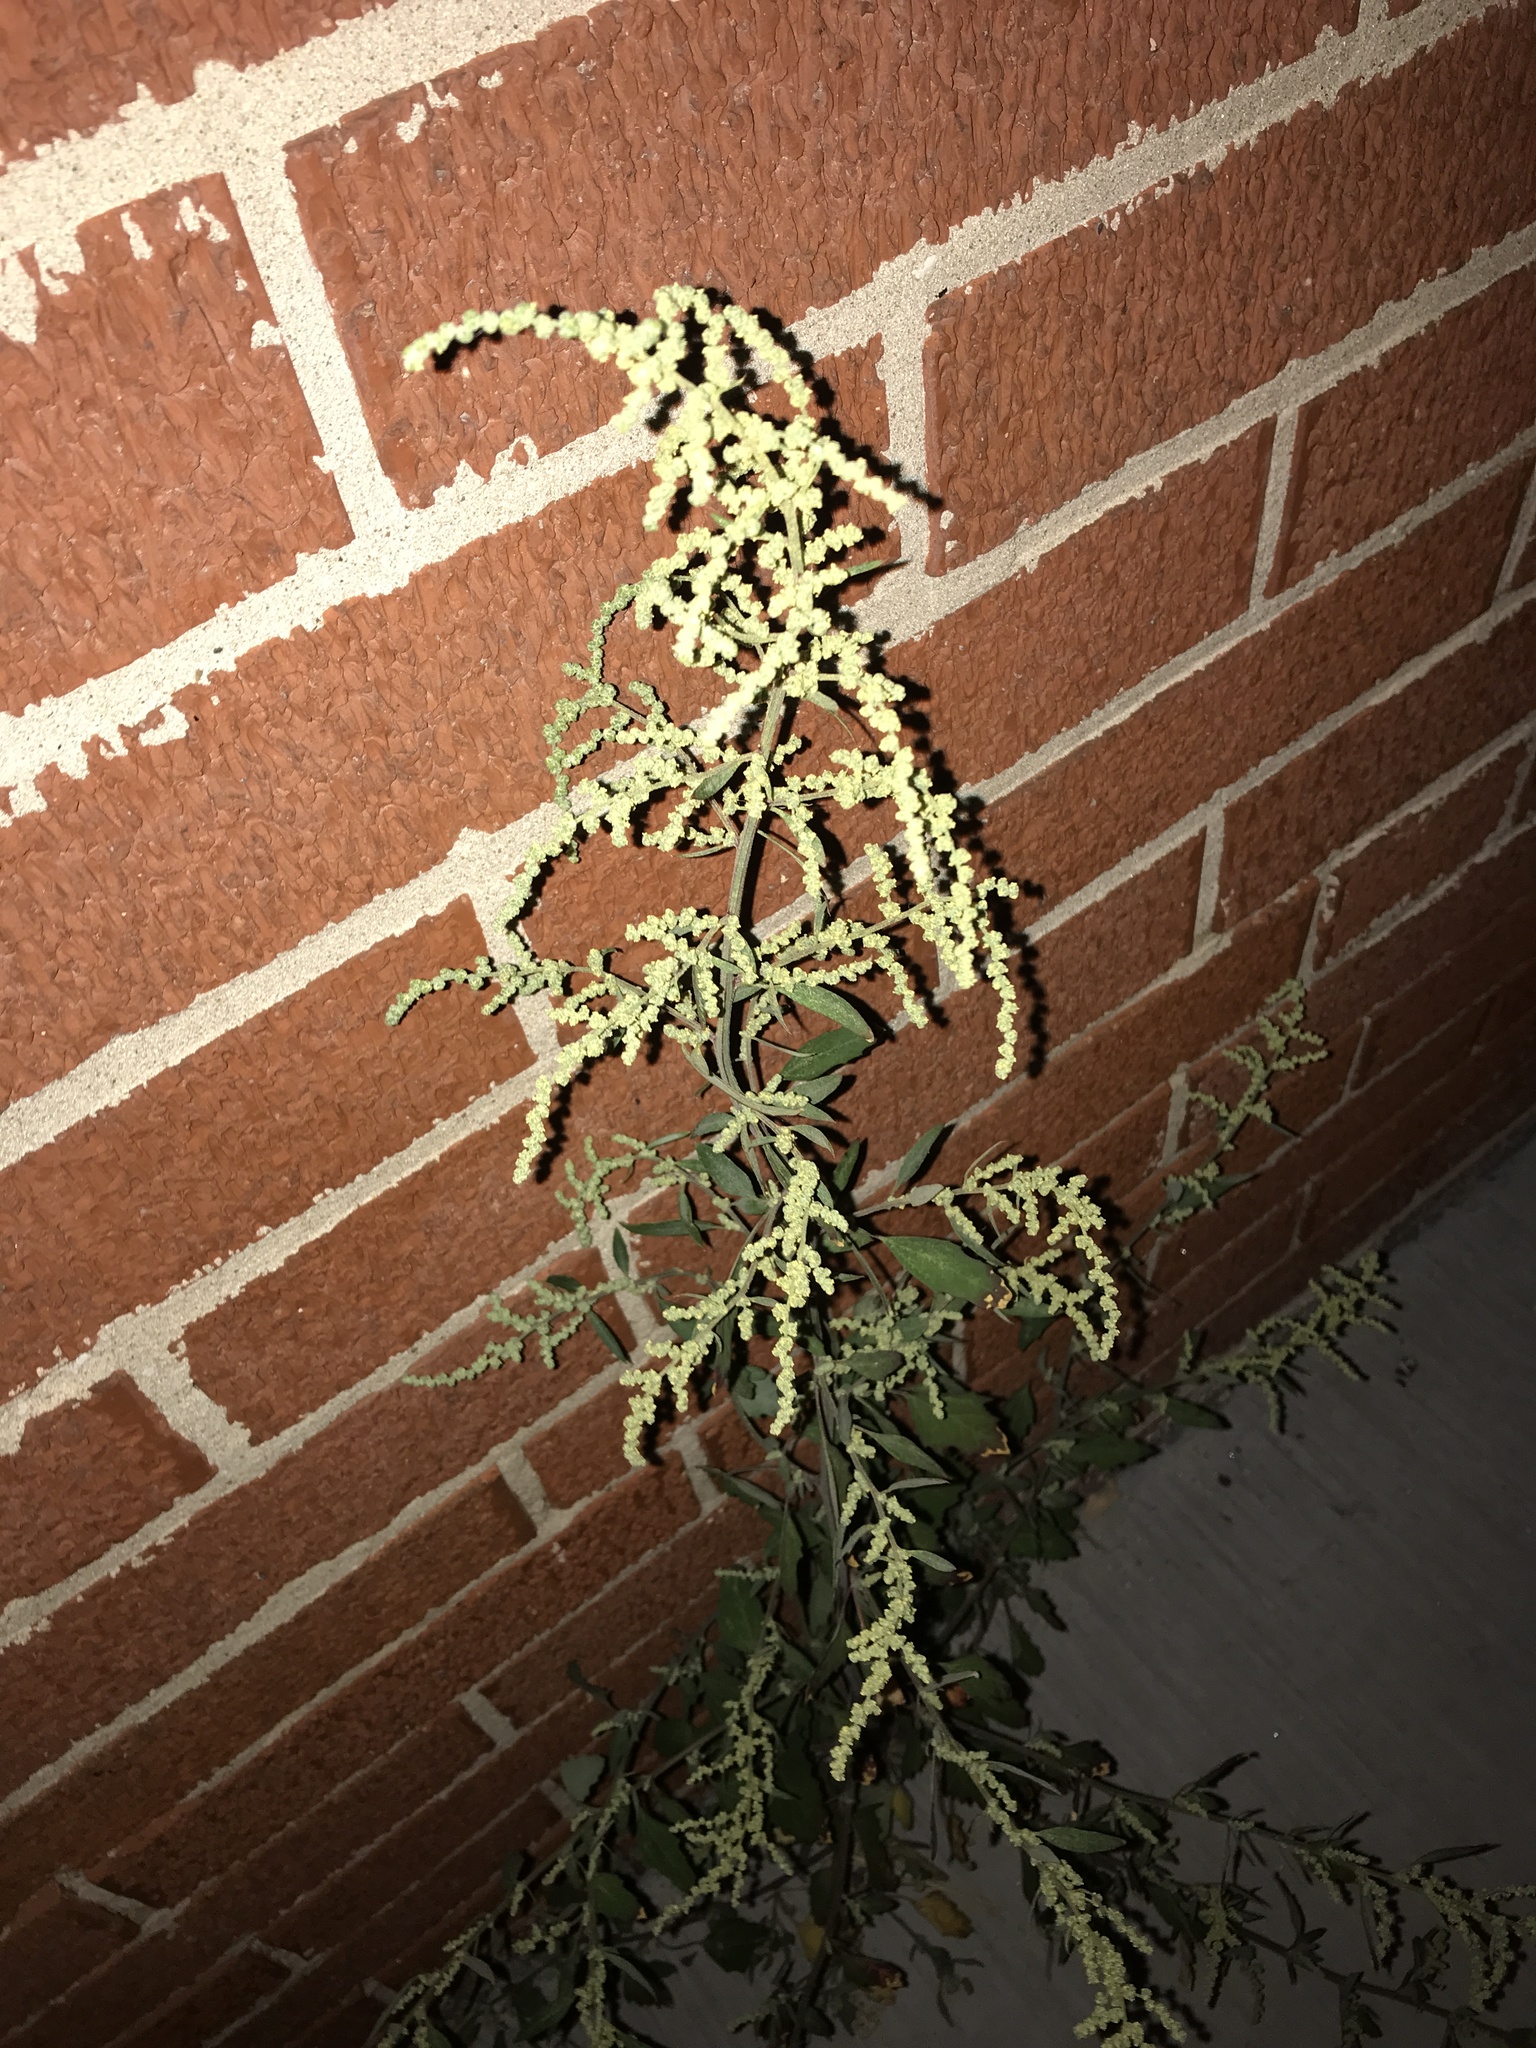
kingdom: Plantae
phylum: Tracheophyta
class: Magnoliopsida
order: Caryophyllales
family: Amaranthaceae
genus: Chenopodium
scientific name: Chenopodium album
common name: Fat-hen
